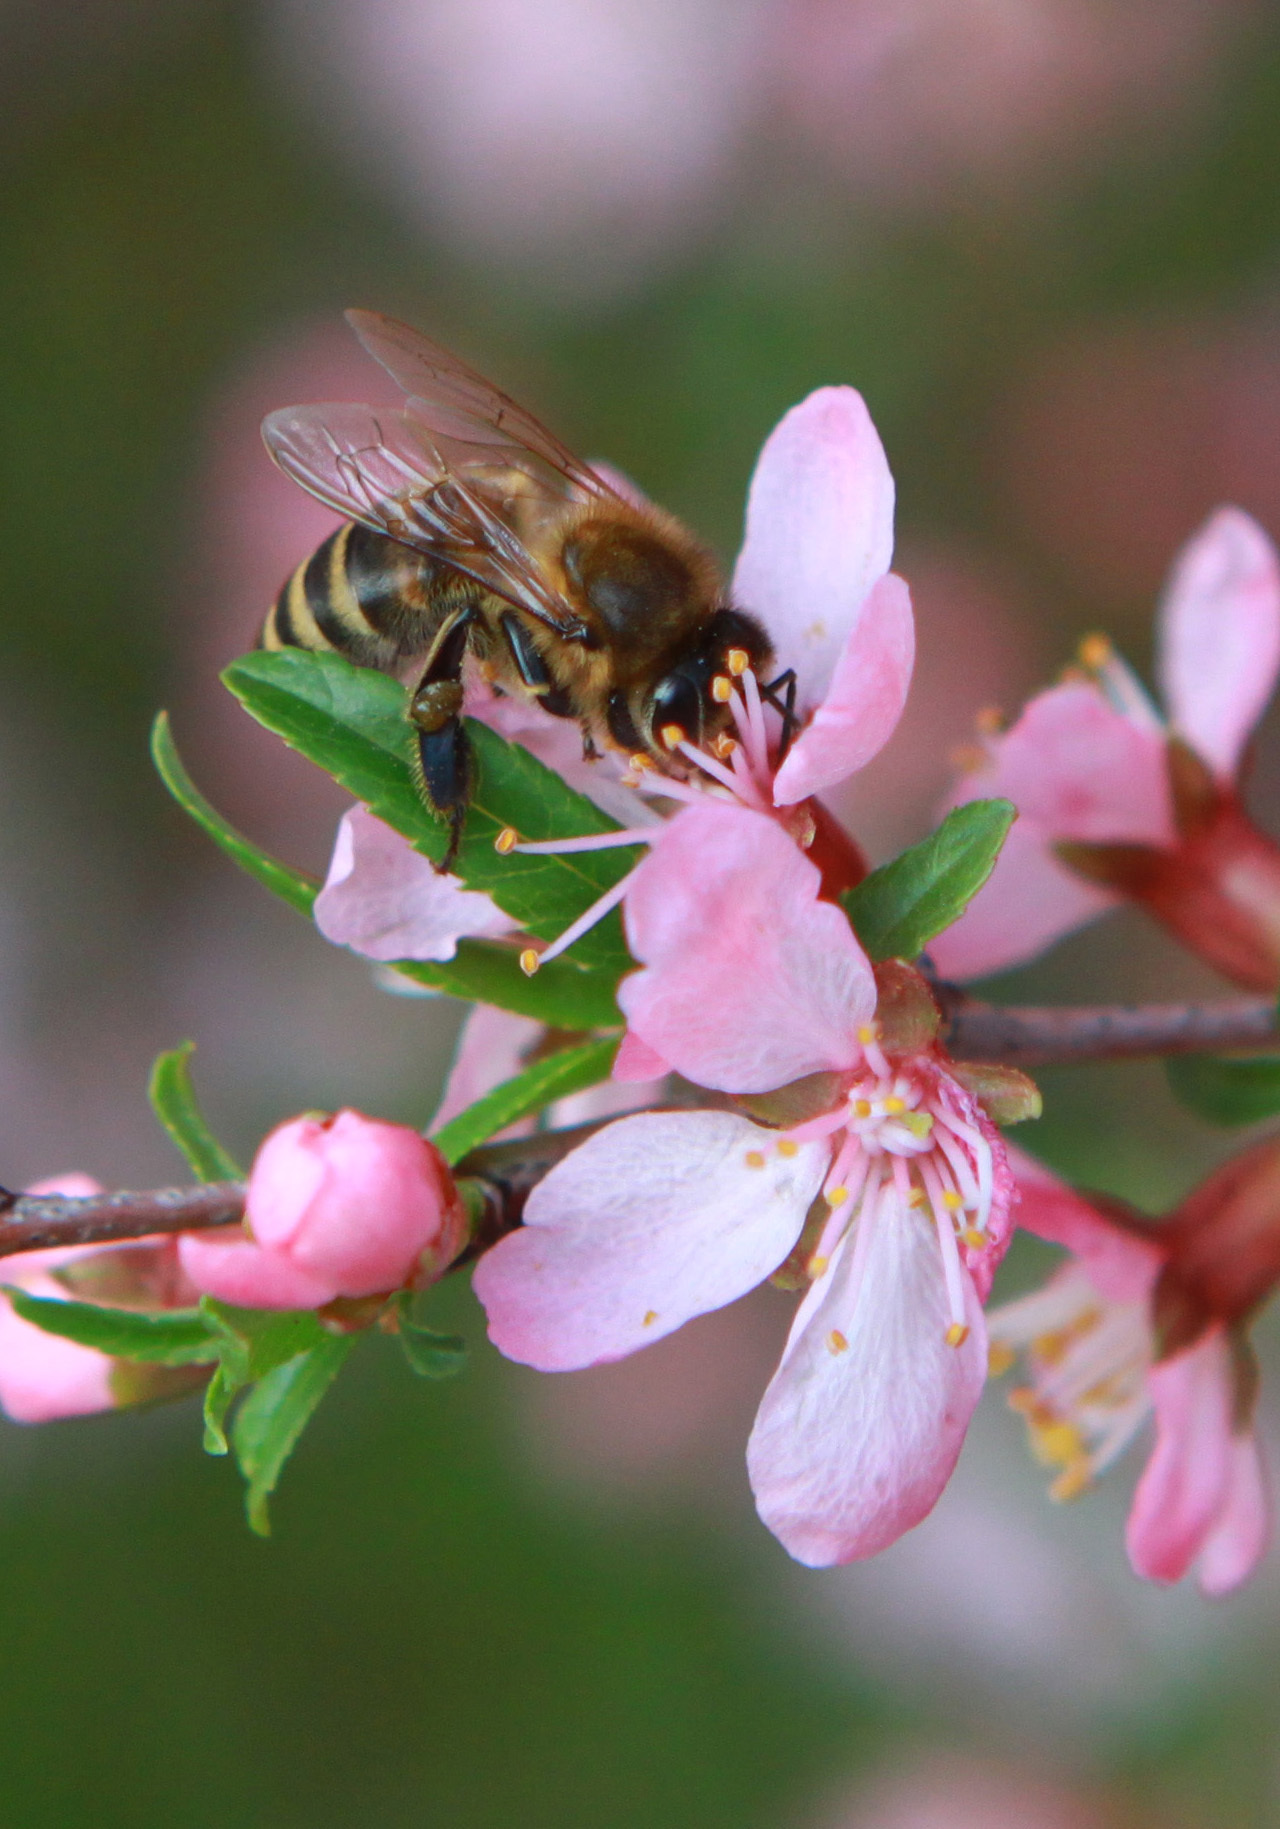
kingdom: Animalia
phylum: Arthropoda
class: Insecta
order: Hymenoptera
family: Apidae
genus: Apis
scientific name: Apis mellifera
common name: Honey bee
